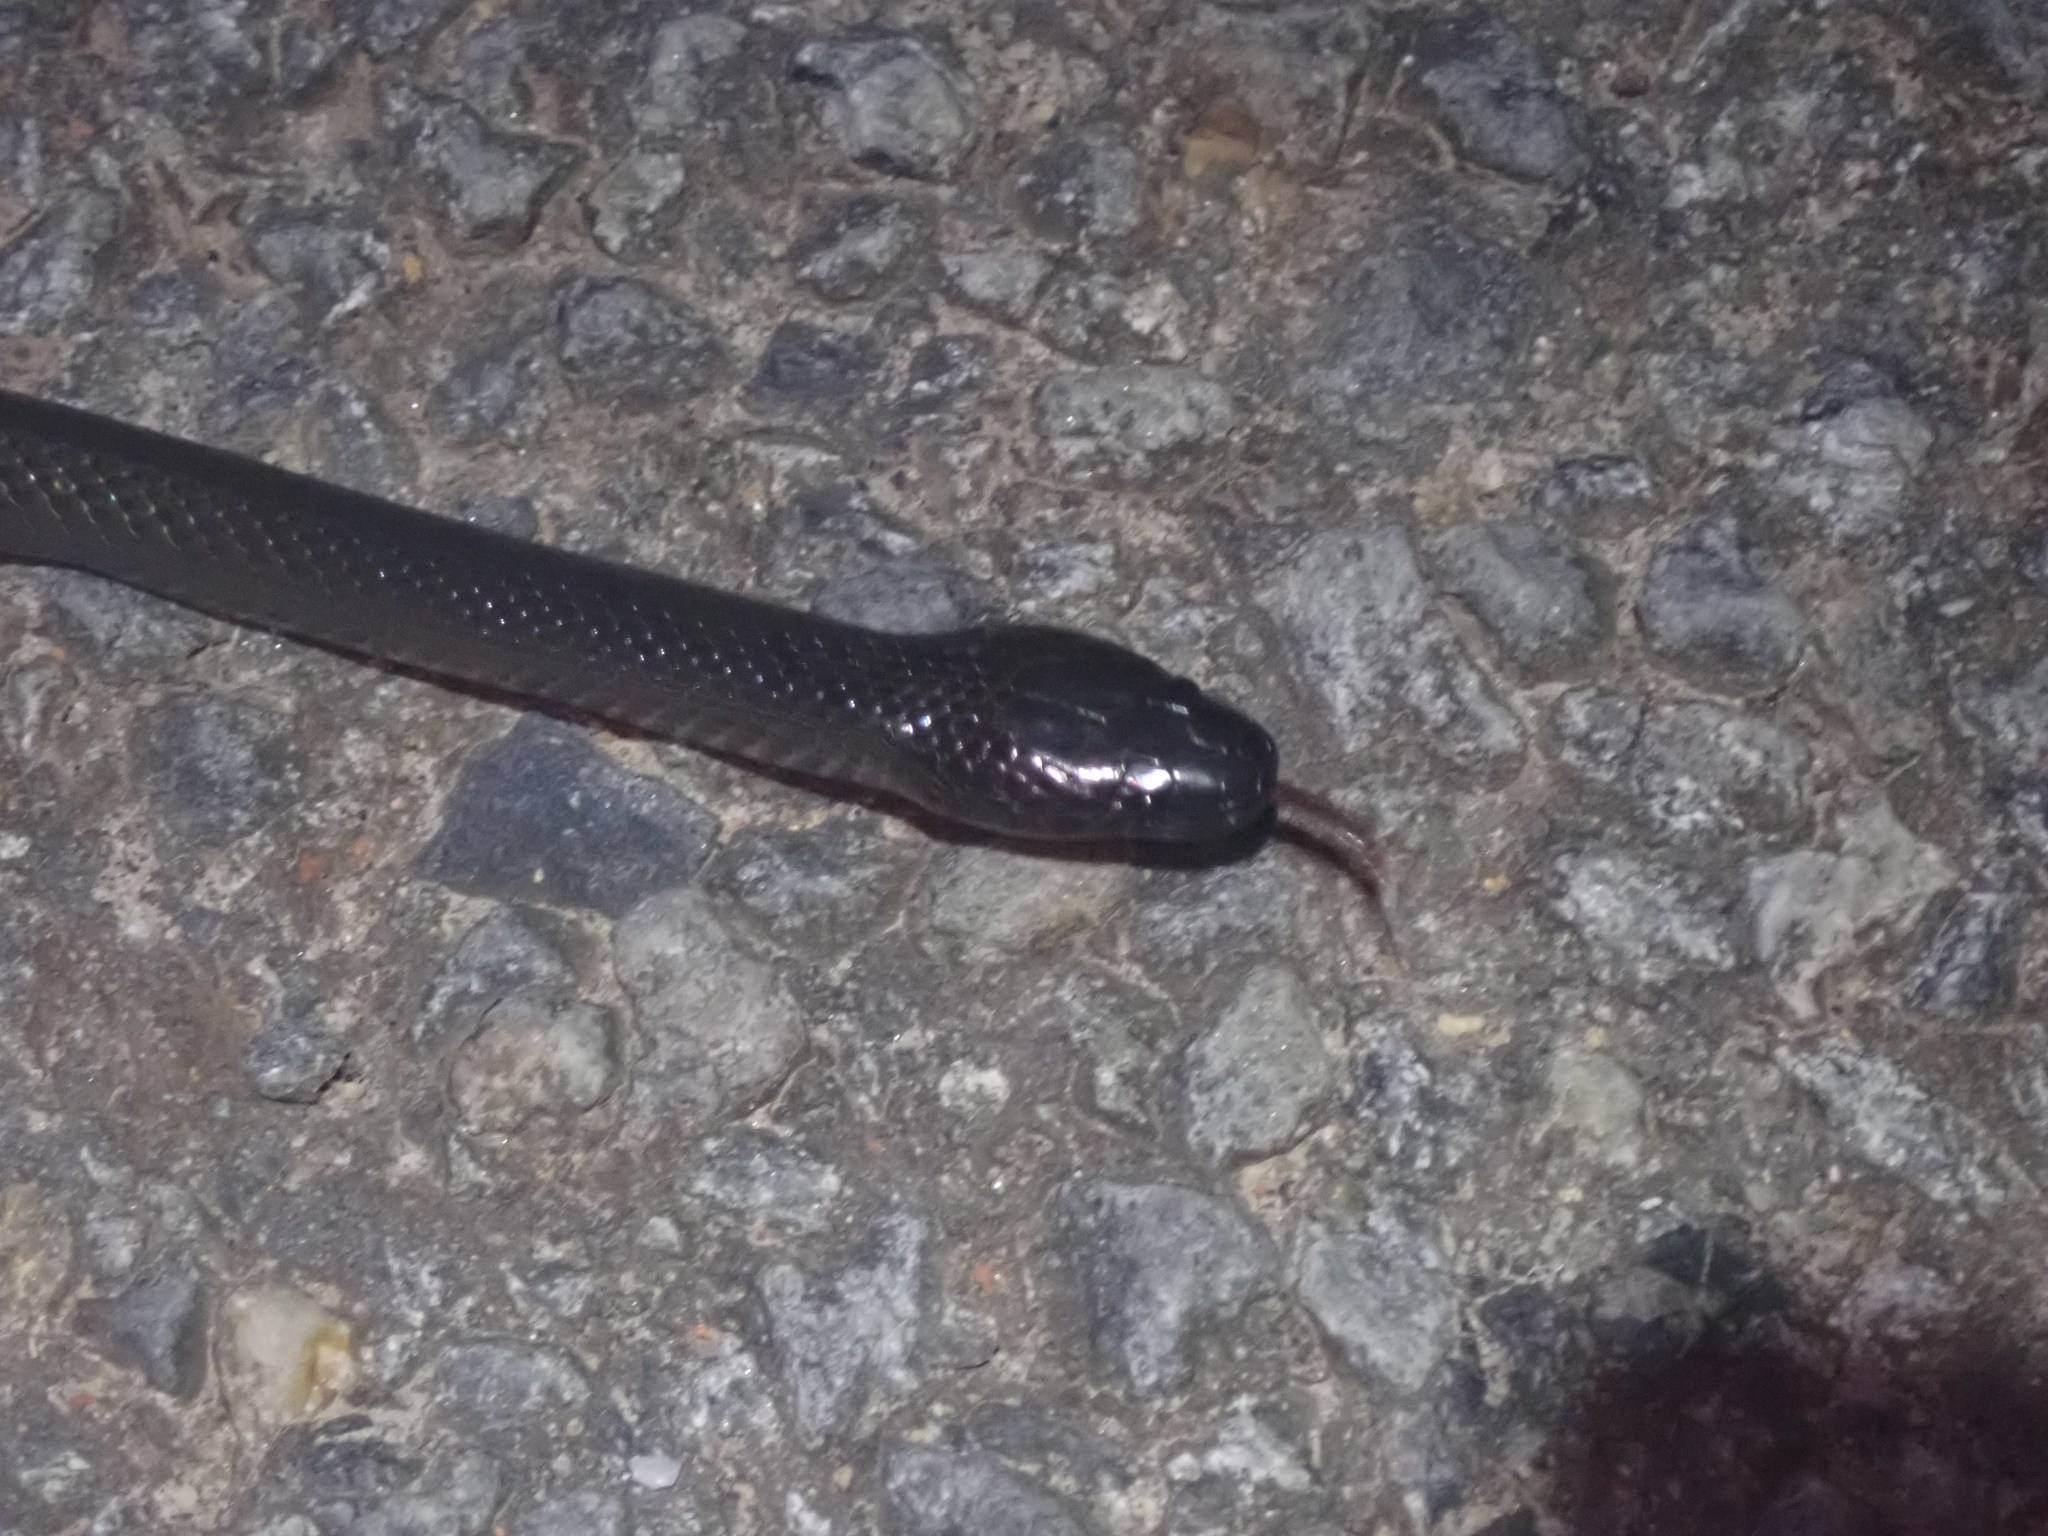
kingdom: Animalia
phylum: Chordata
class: Squamata
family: Elapidae
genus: Cryptophis
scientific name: Cryptophis nigrescens
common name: Eastern small-eyed snake
